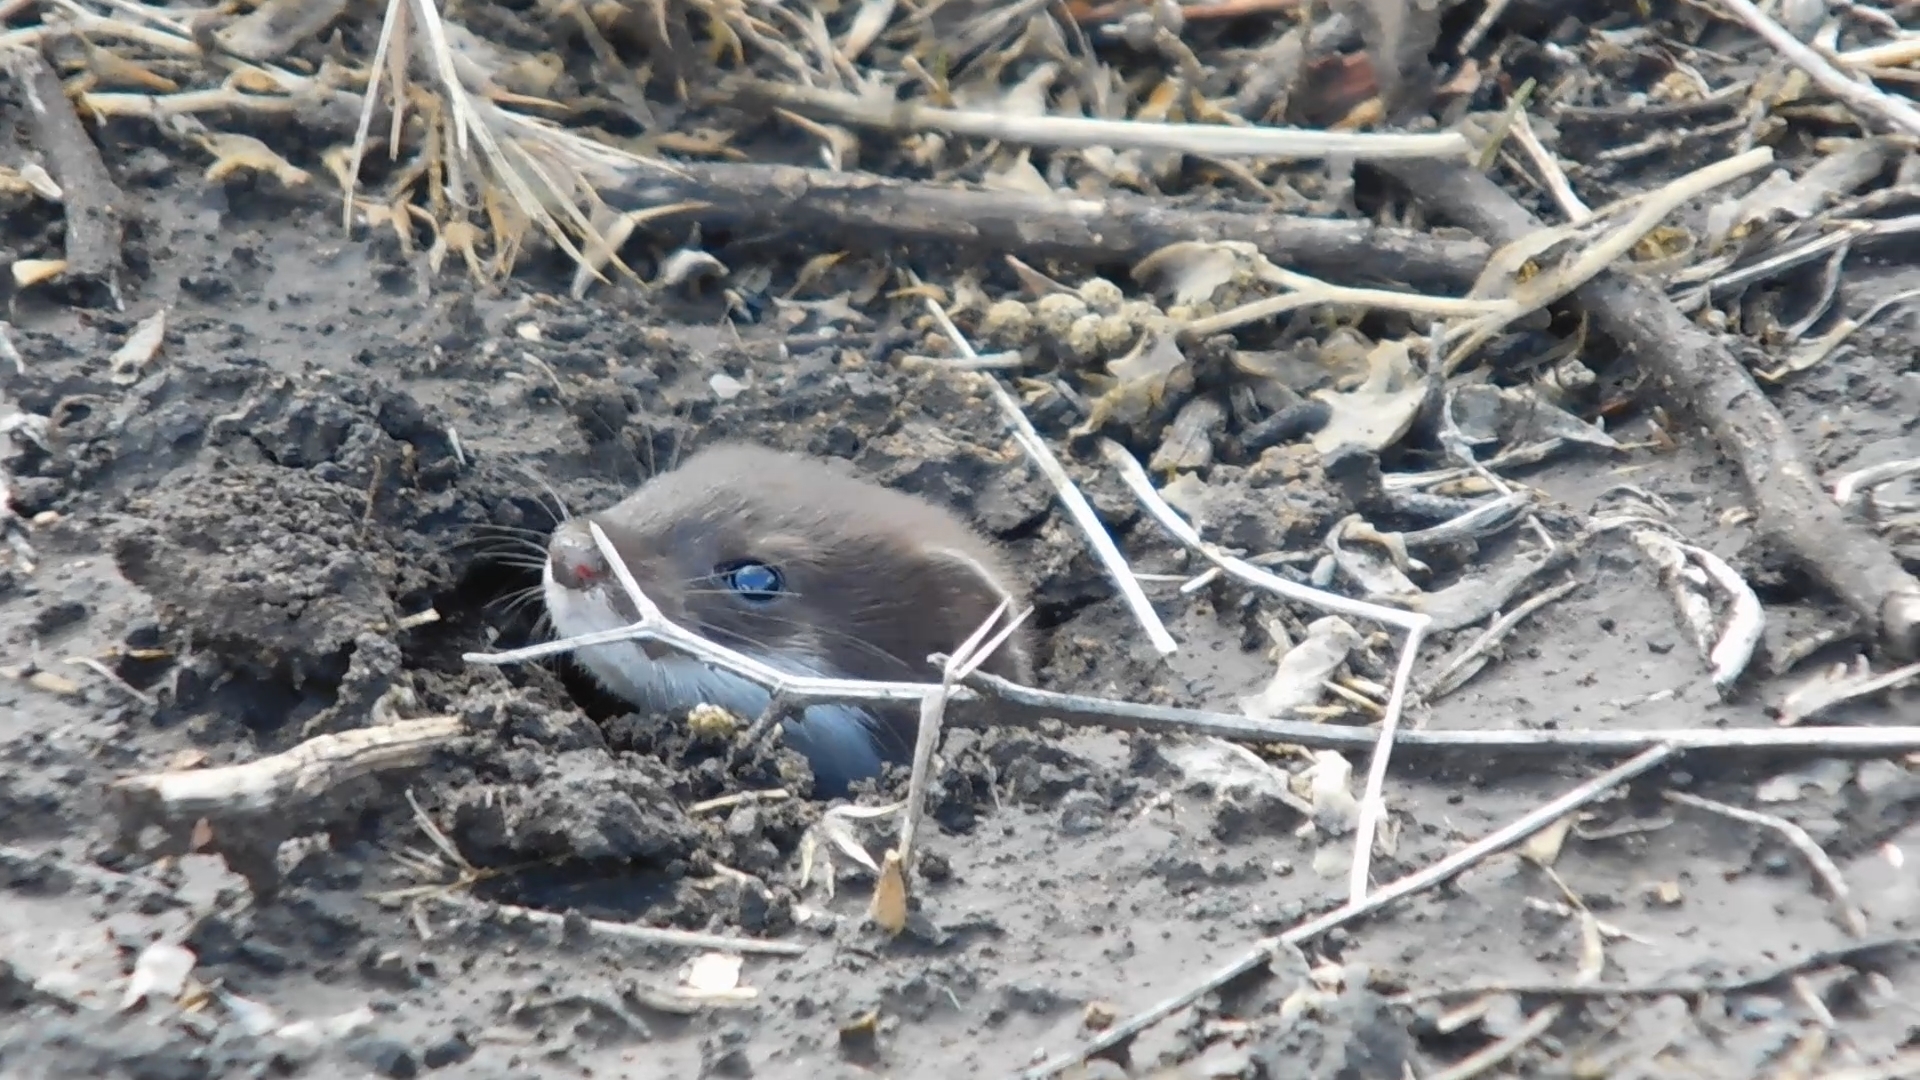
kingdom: Animalia
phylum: Chordata
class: Mammalia
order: Carnivora
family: Mustelidae
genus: Mustela
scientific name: Mustela nivalis
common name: Least weasel
